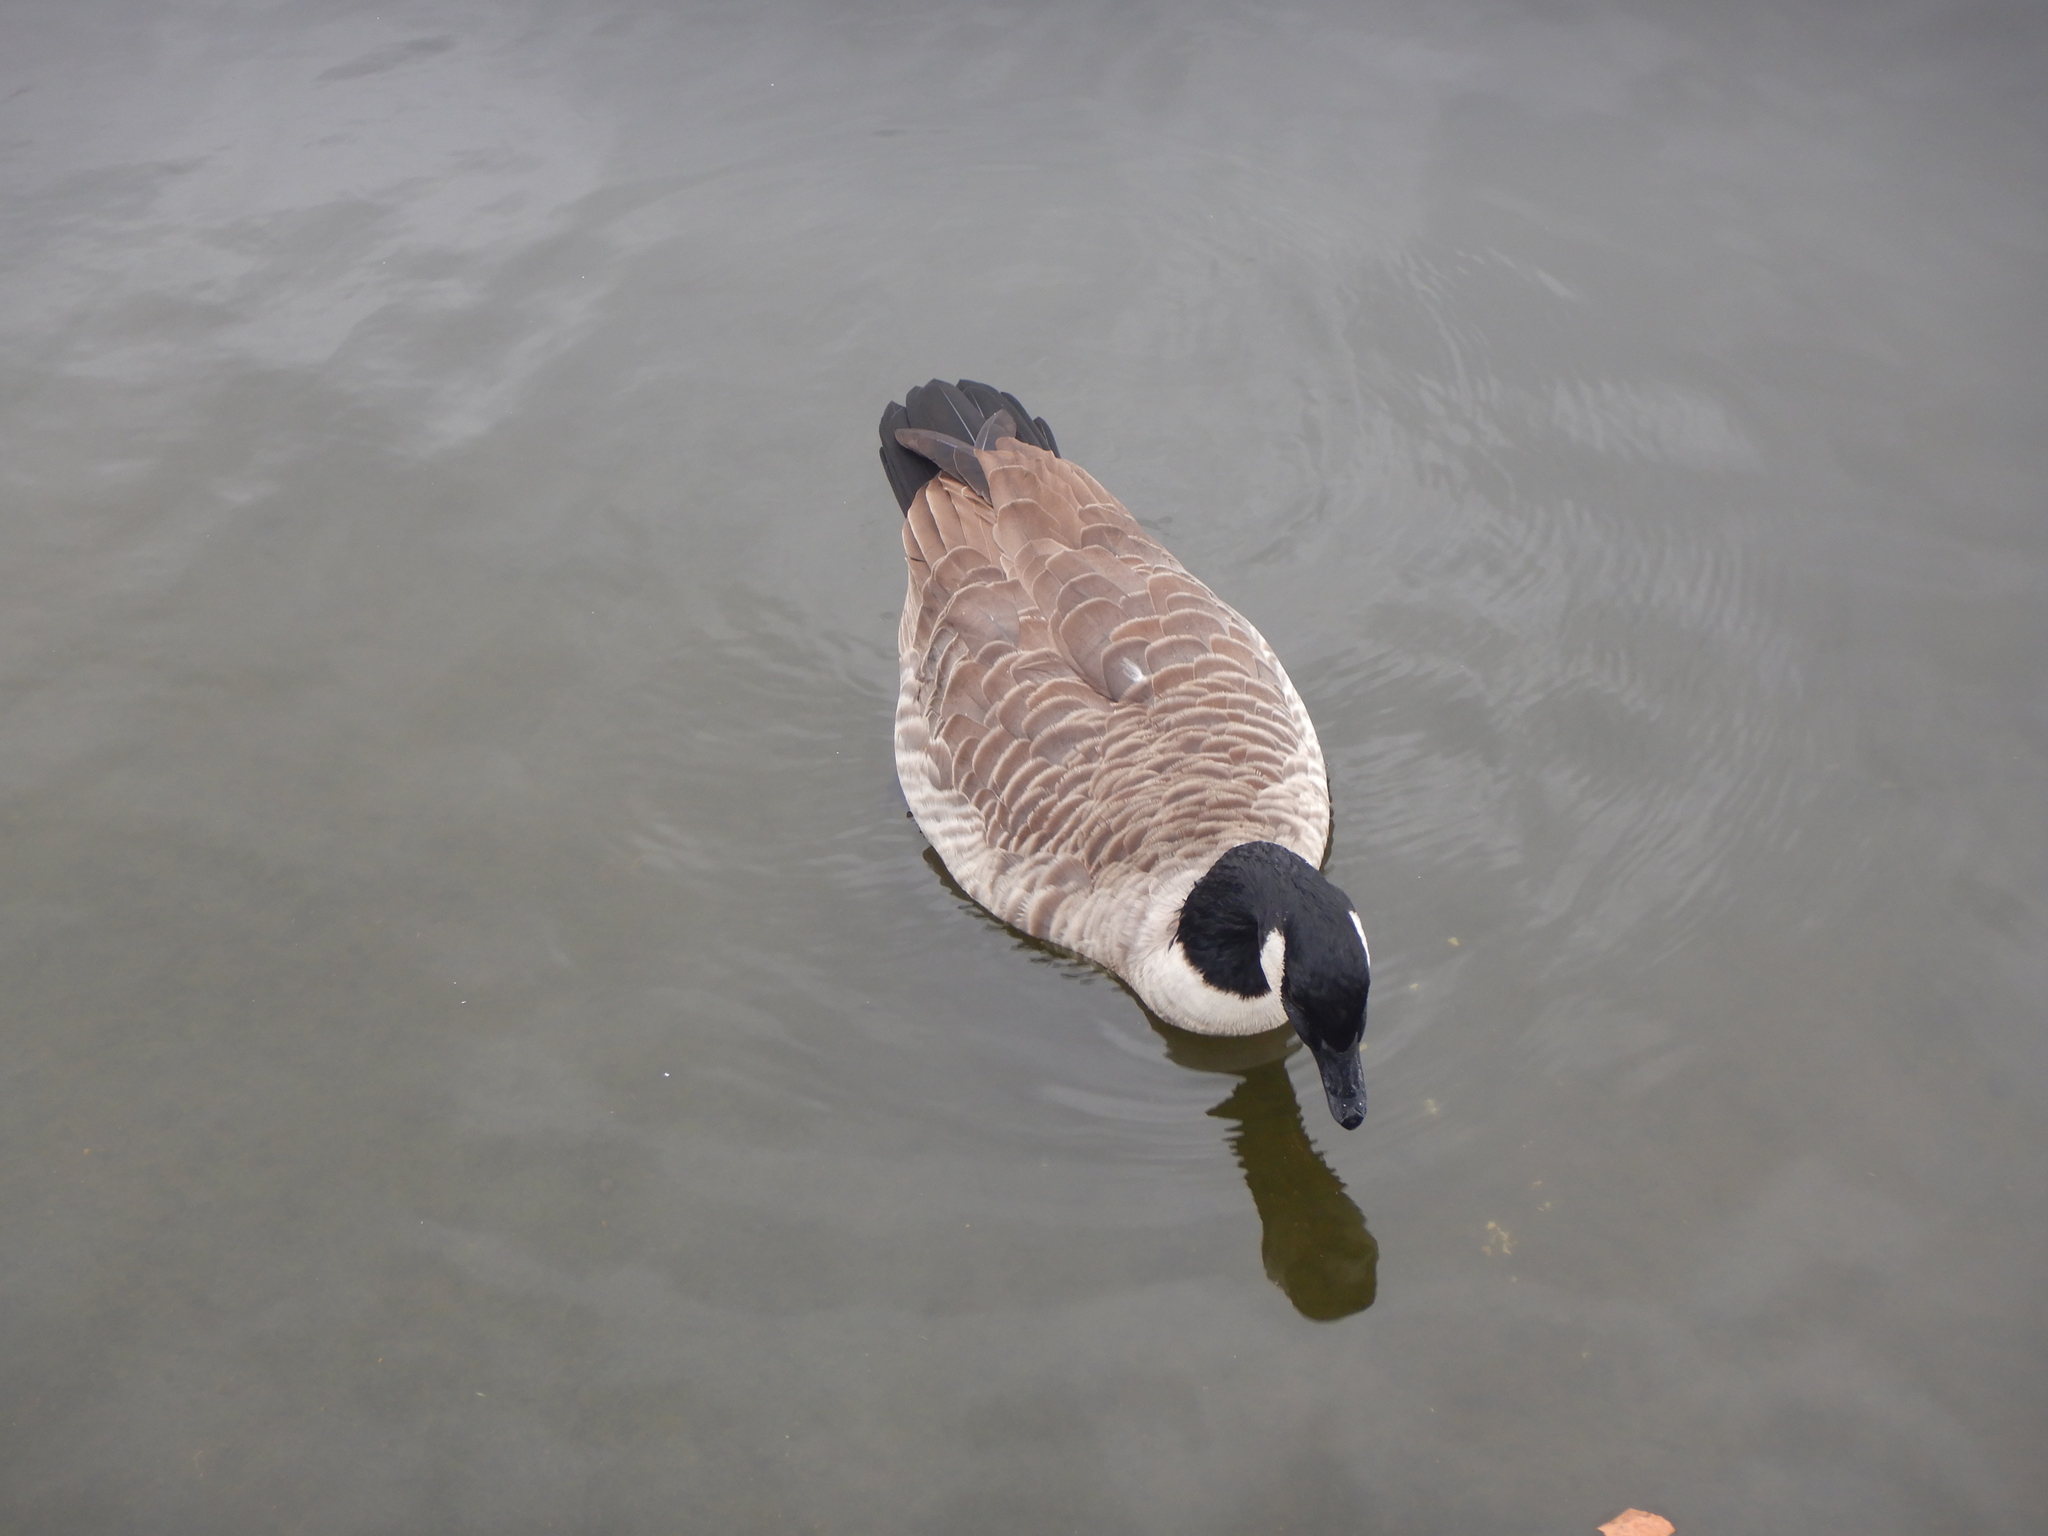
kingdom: Animalia
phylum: Chordata
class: Aves
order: Anseriformes
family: Anatidae
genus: Branta
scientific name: Branta canadensis
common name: Canada goose
